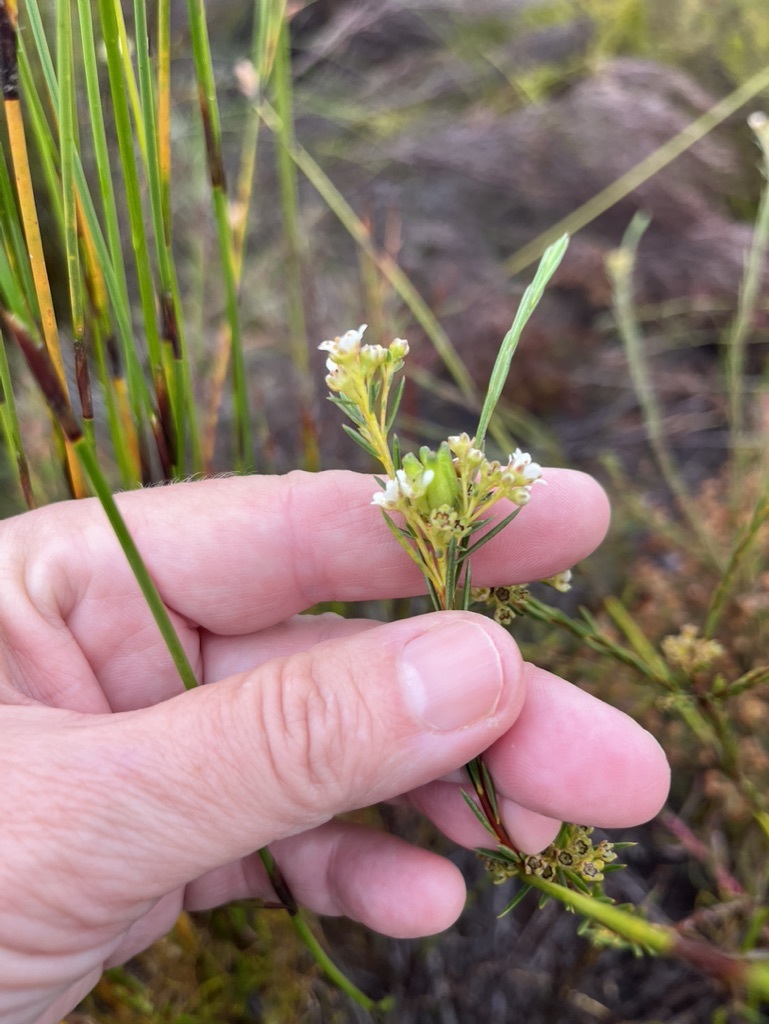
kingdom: Plantae
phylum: Tracheophyta
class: Magnoliopsida
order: Sapindales
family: Rutaceae
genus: Diosma
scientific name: Diosma hirsuta
